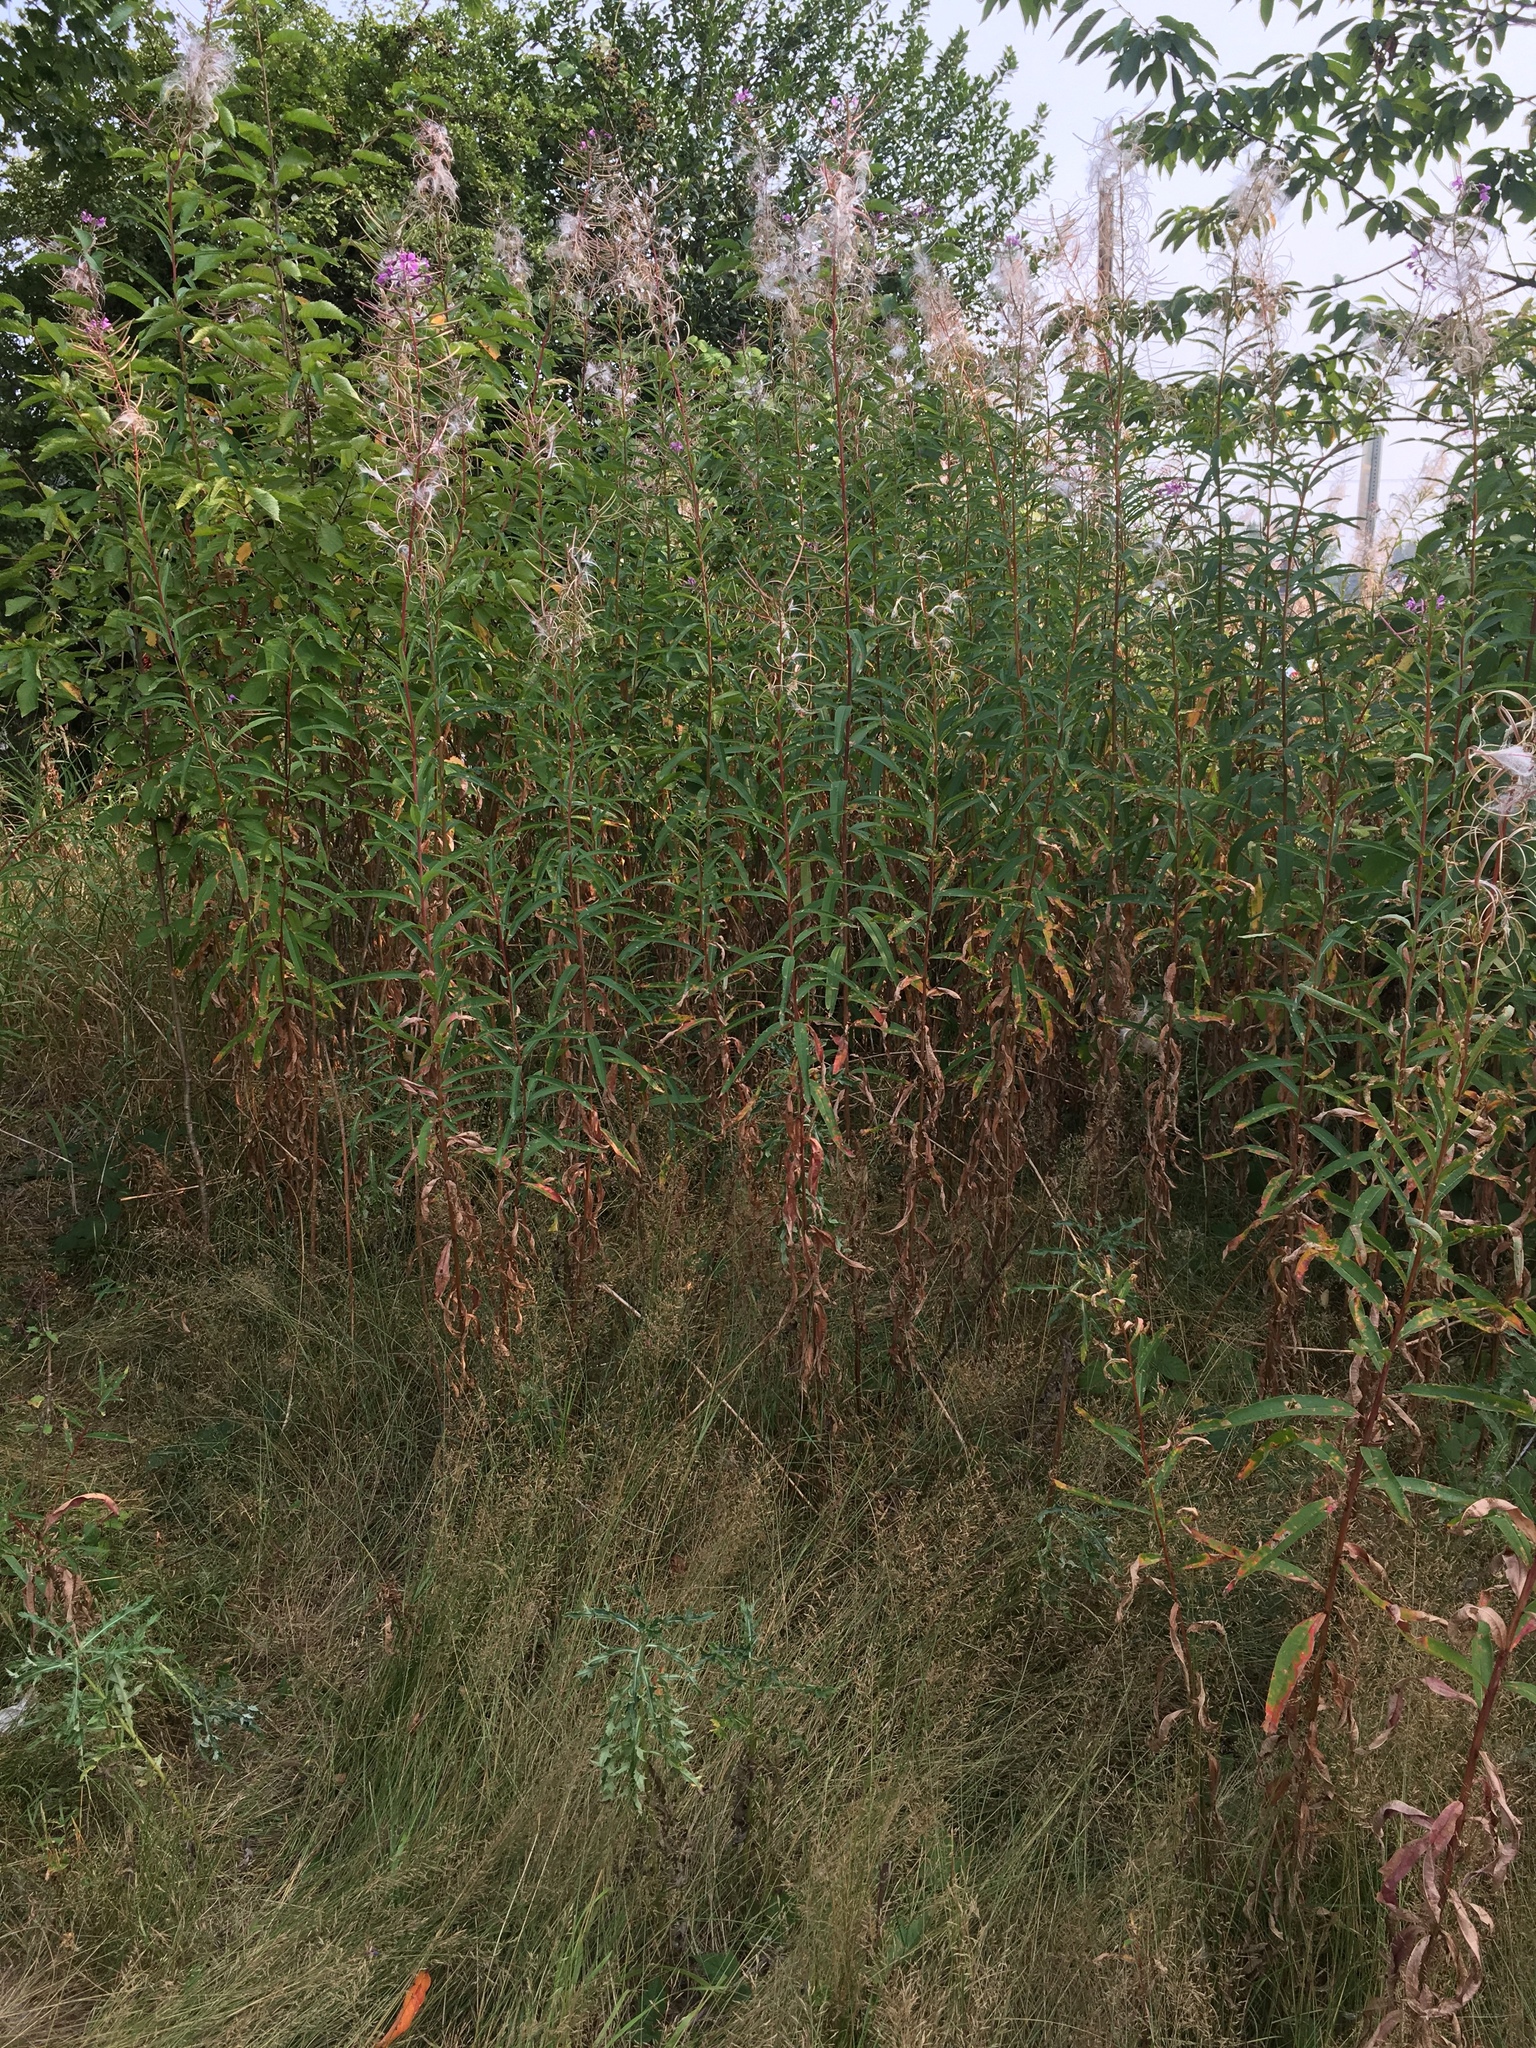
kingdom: Plantae
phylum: Tracheophyta
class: Magnoliopsida
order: Myrtales
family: Onagraceae
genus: Chamaenerion
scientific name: Chamaenerion angustifolium
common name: Fireweed
